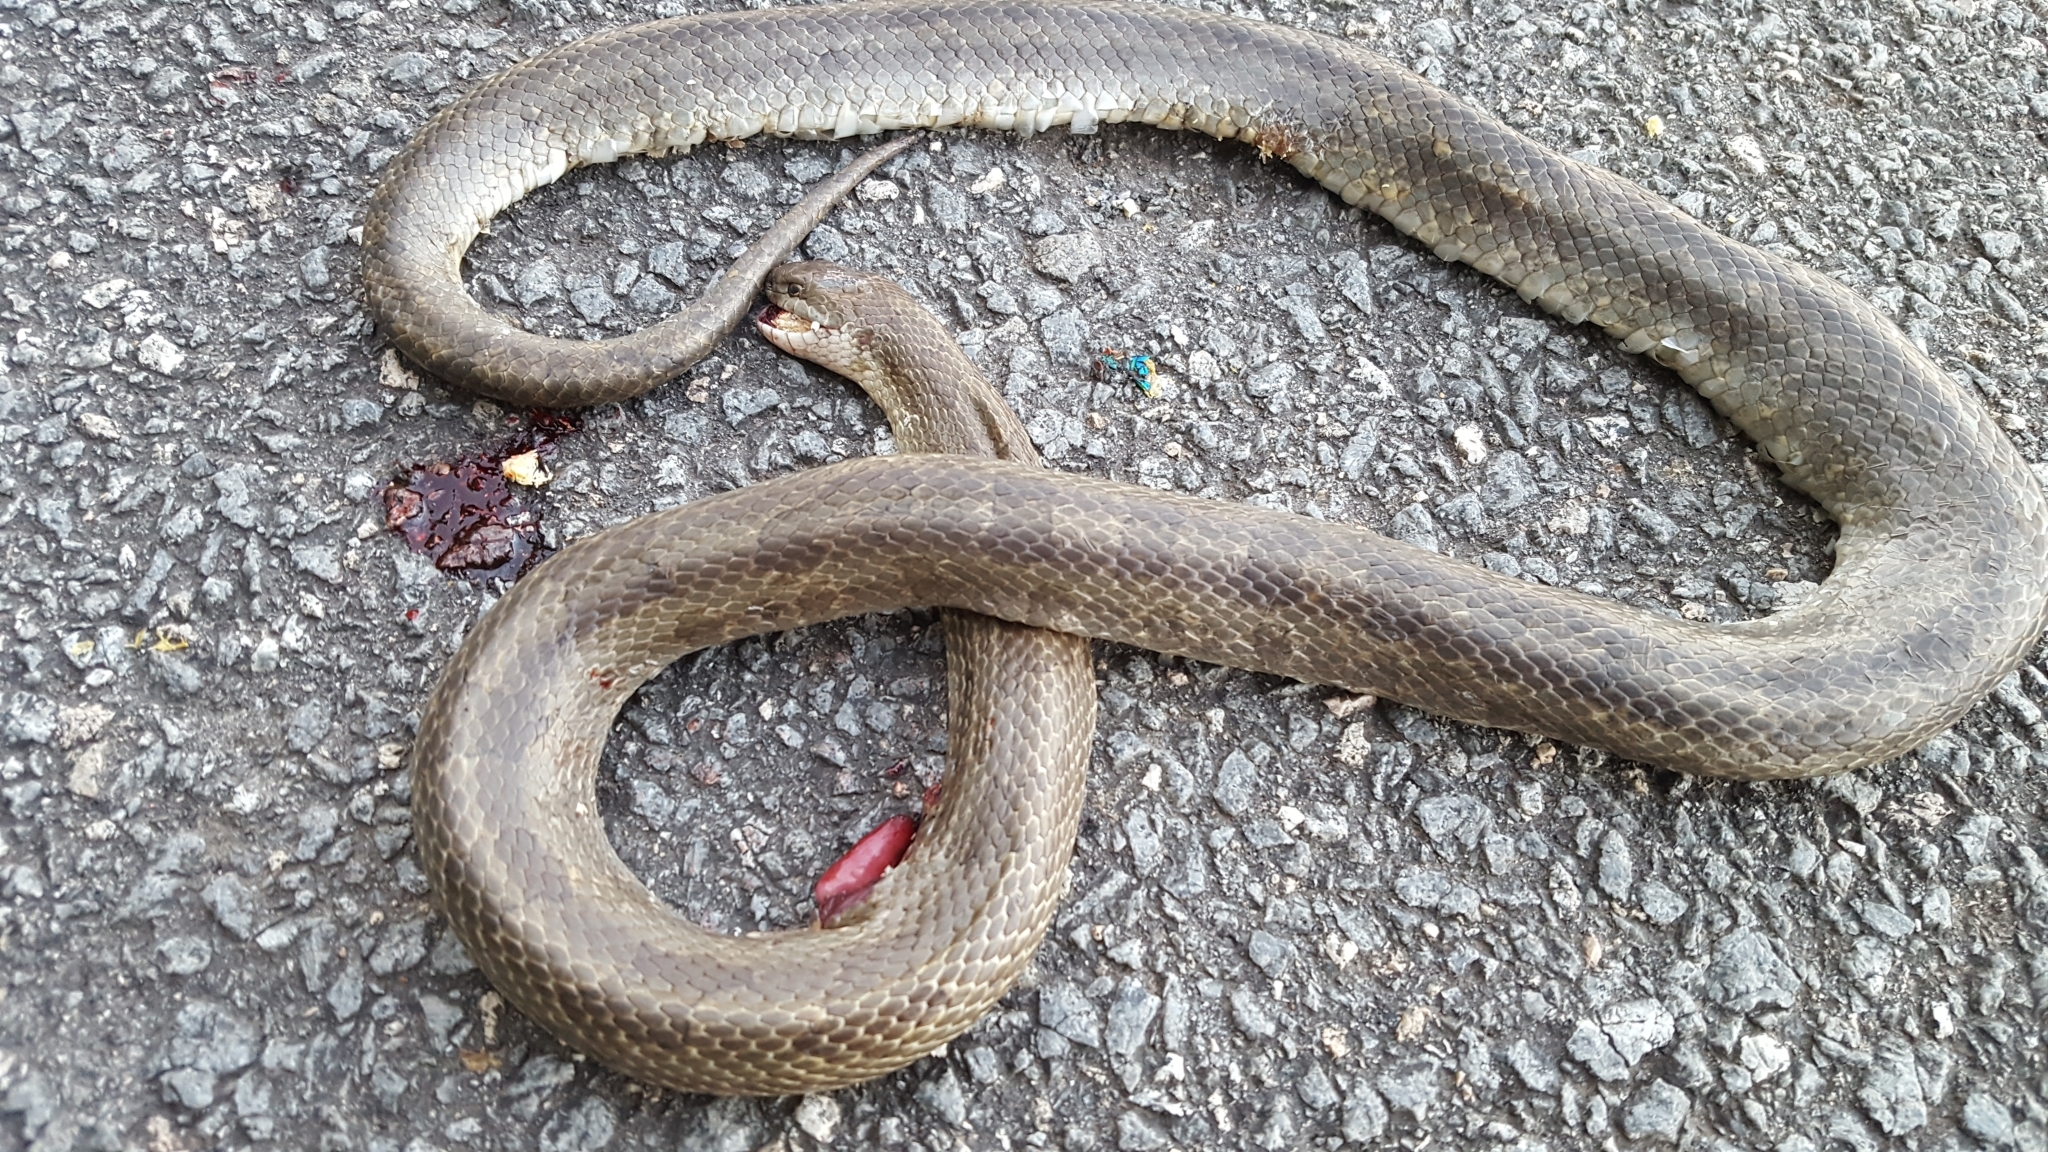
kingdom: Animalia
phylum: Chordata
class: Squamata
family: Colubridae
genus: Lampropeltis
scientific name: Lampropeltis calligaster
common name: Prairie kingsnake
